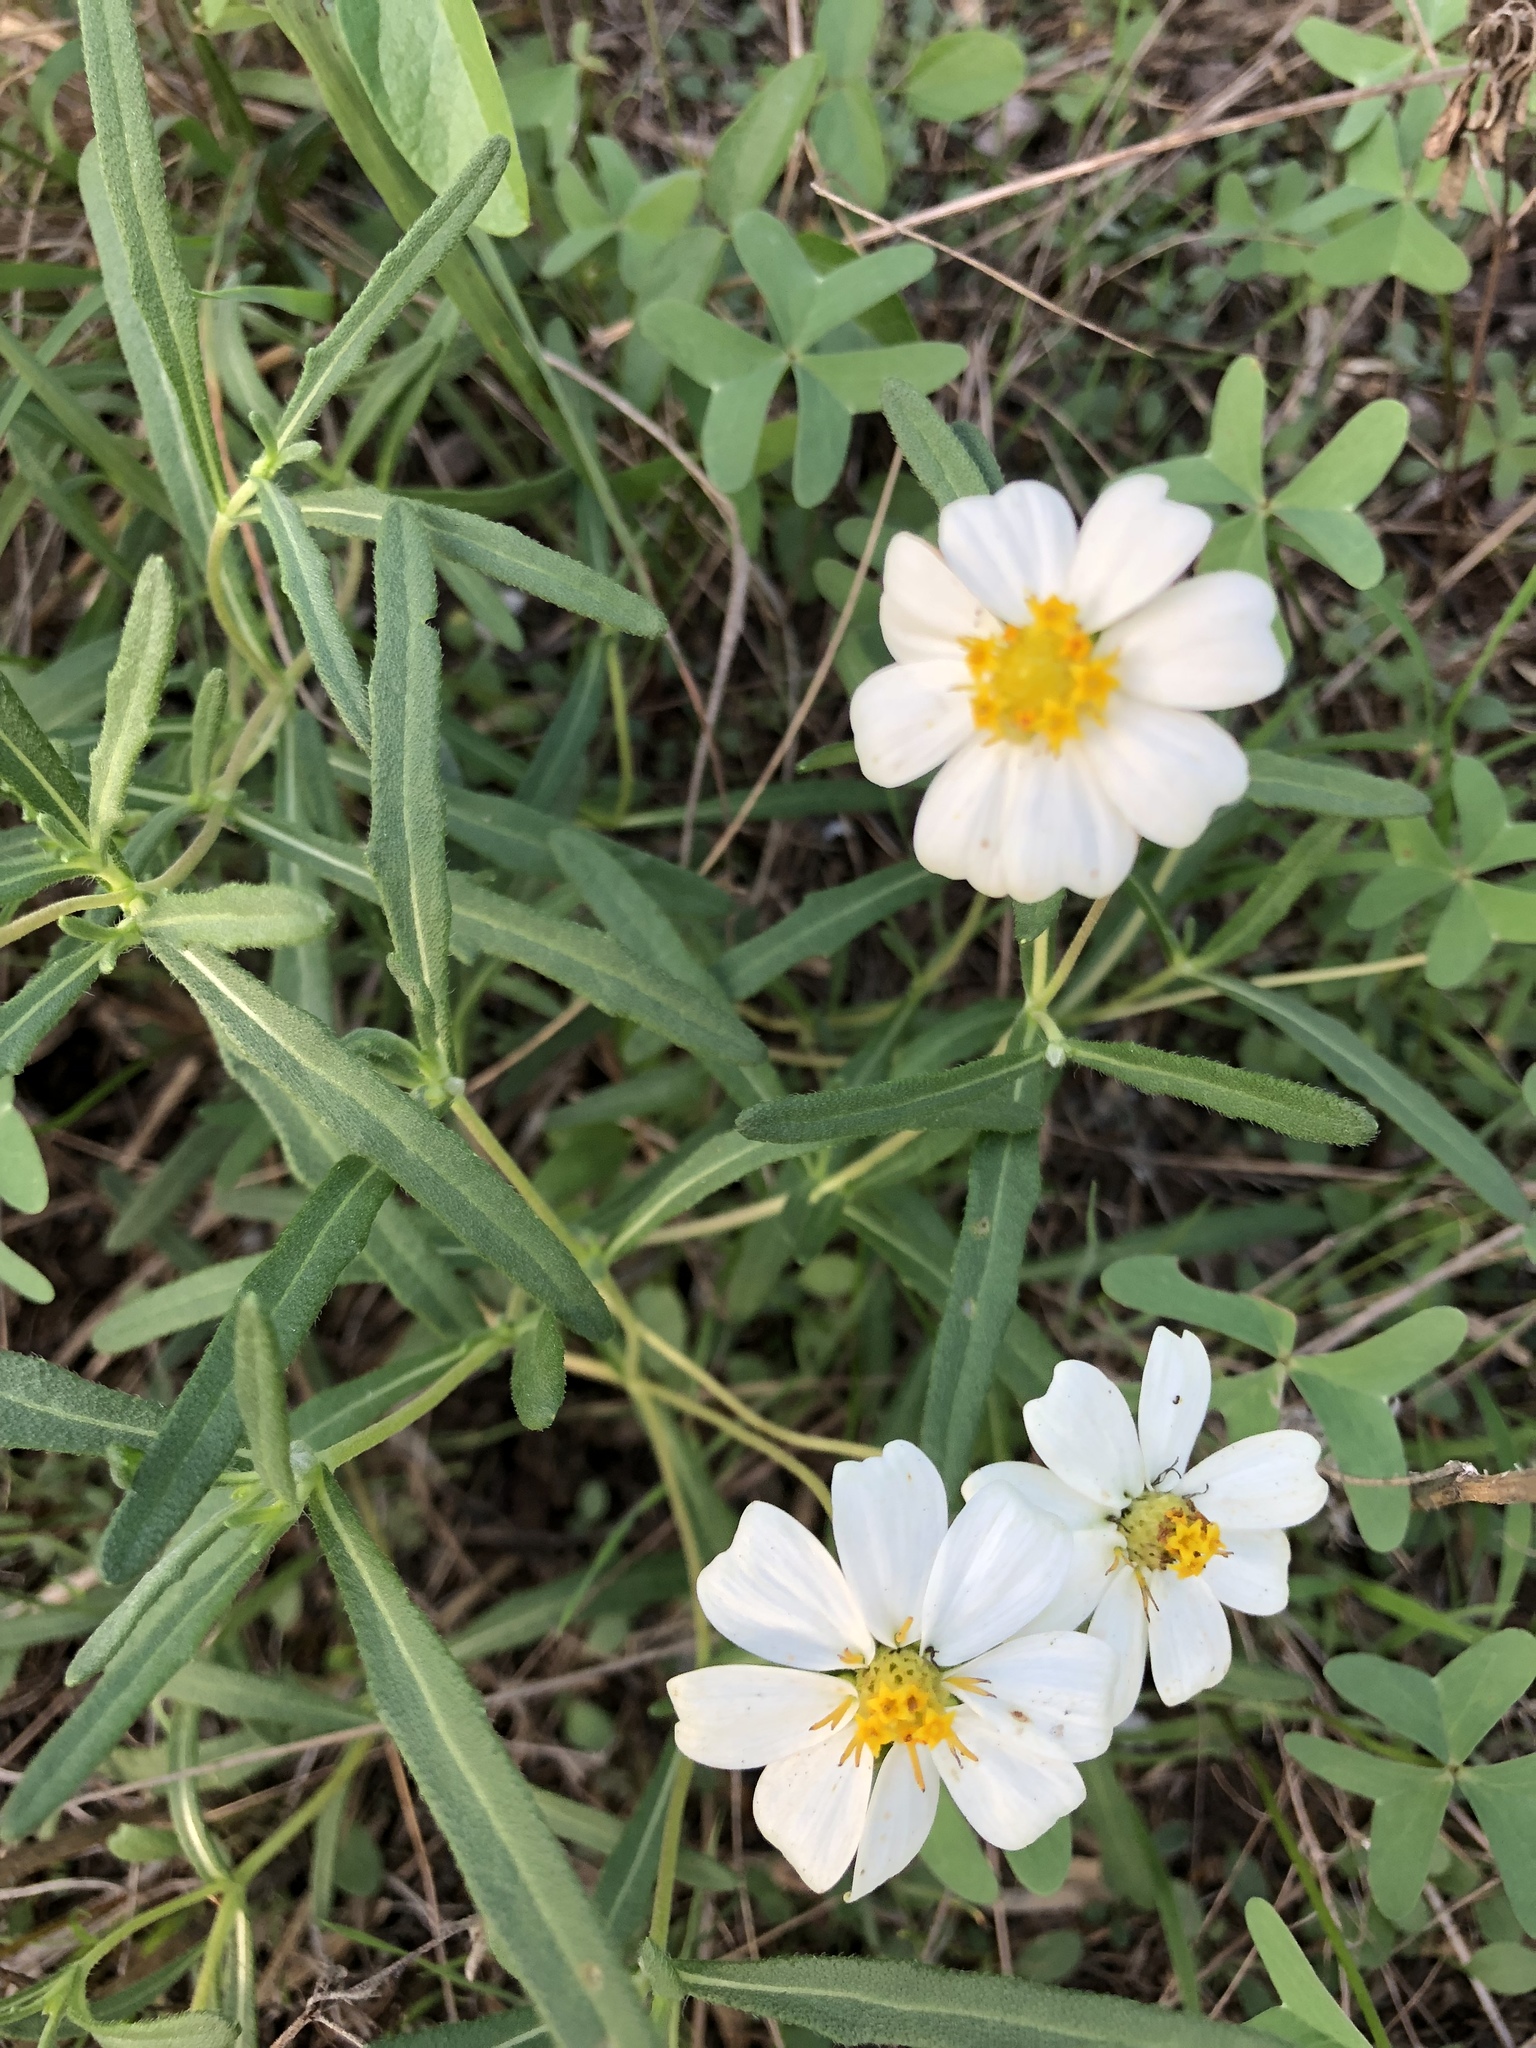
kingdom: Plantae
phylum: Tracheophyta
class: Magnoliopsida
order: Asterales
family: Asteraceae
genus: Melampodium
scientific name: Melampodium leucanthum
